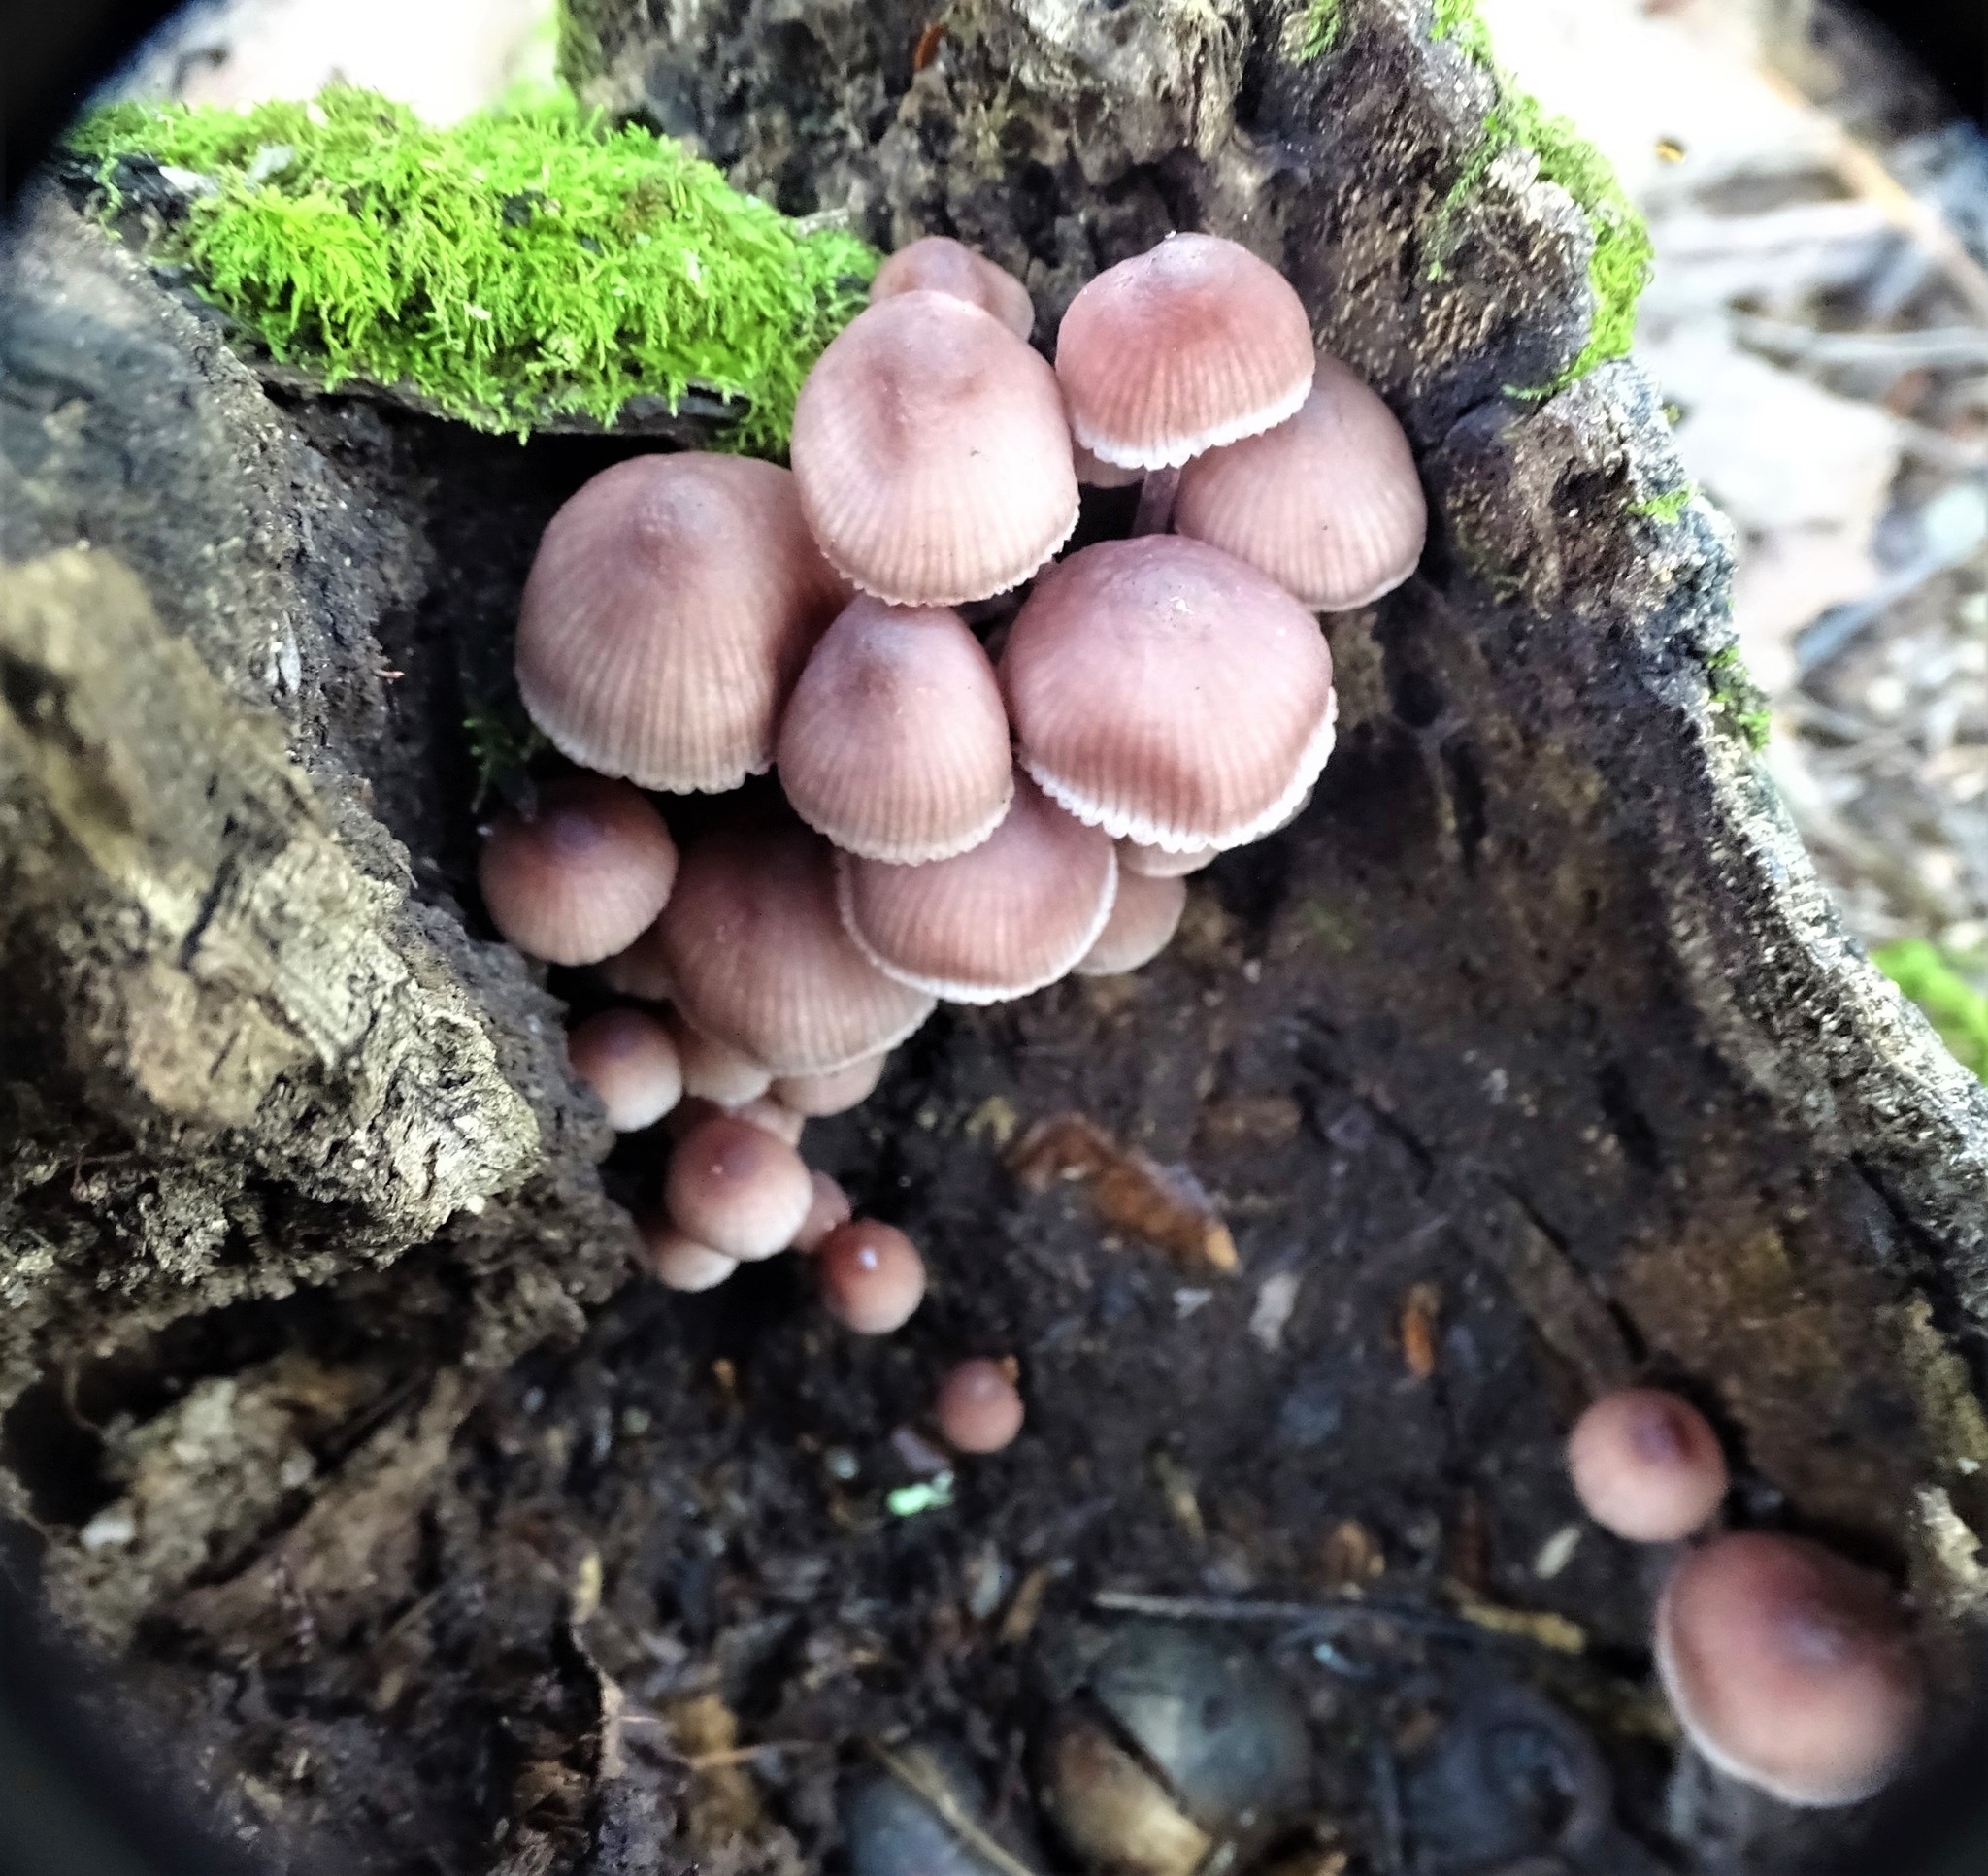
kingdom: Fungi
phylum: Basidiomycota
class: Agaricomycetes
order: Agaricales
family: Mycenaceae
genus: Mycena
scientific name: Mycena haematopus
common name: Burgundydrop bonnet
